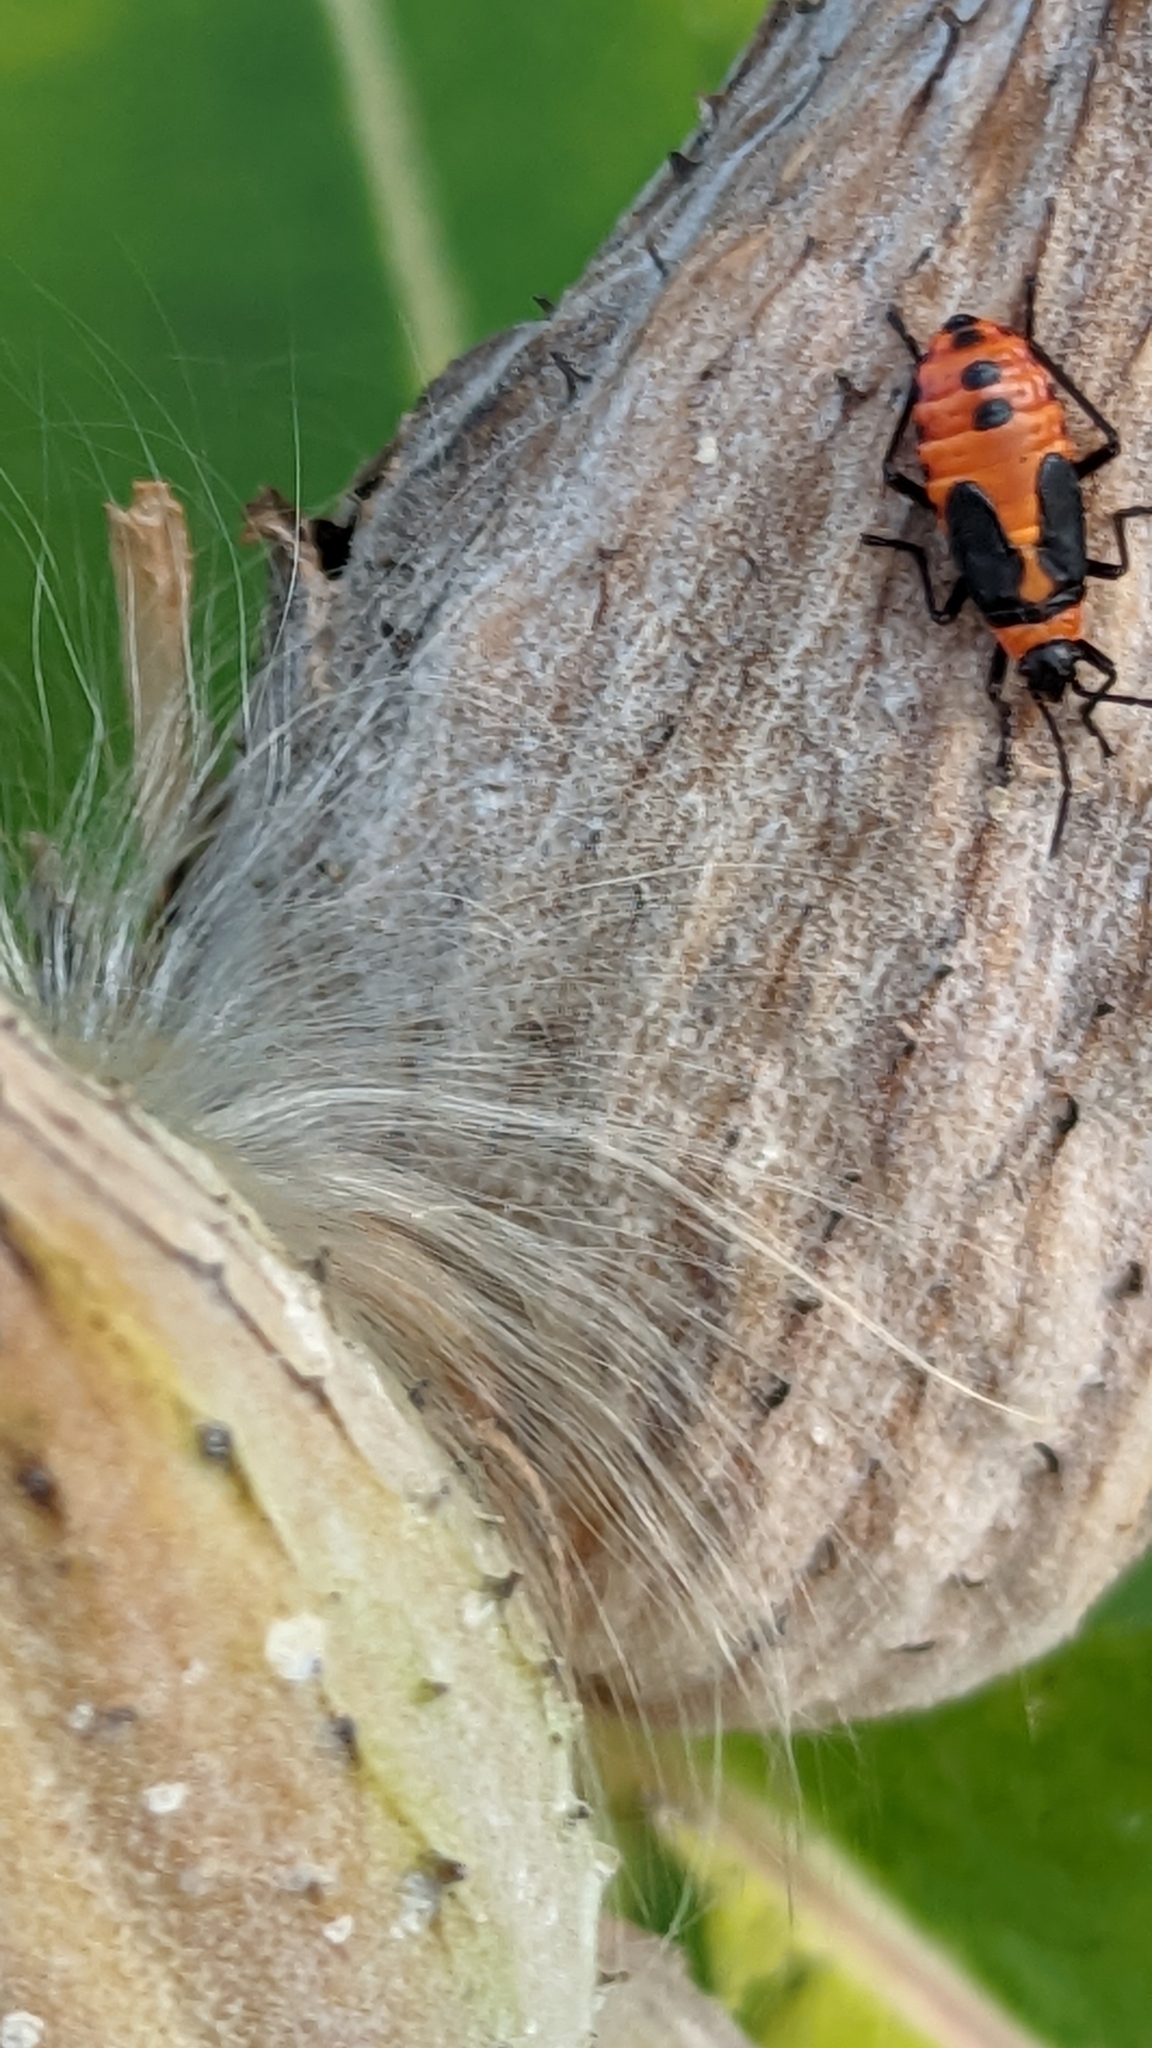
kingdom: Animalia
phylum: Arthropoda
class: Insecta
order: Hemiptera
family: Lygaeidae
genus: Oncopeltus
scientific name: Oncopeltus fasciatus
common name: Large milkweed bug
